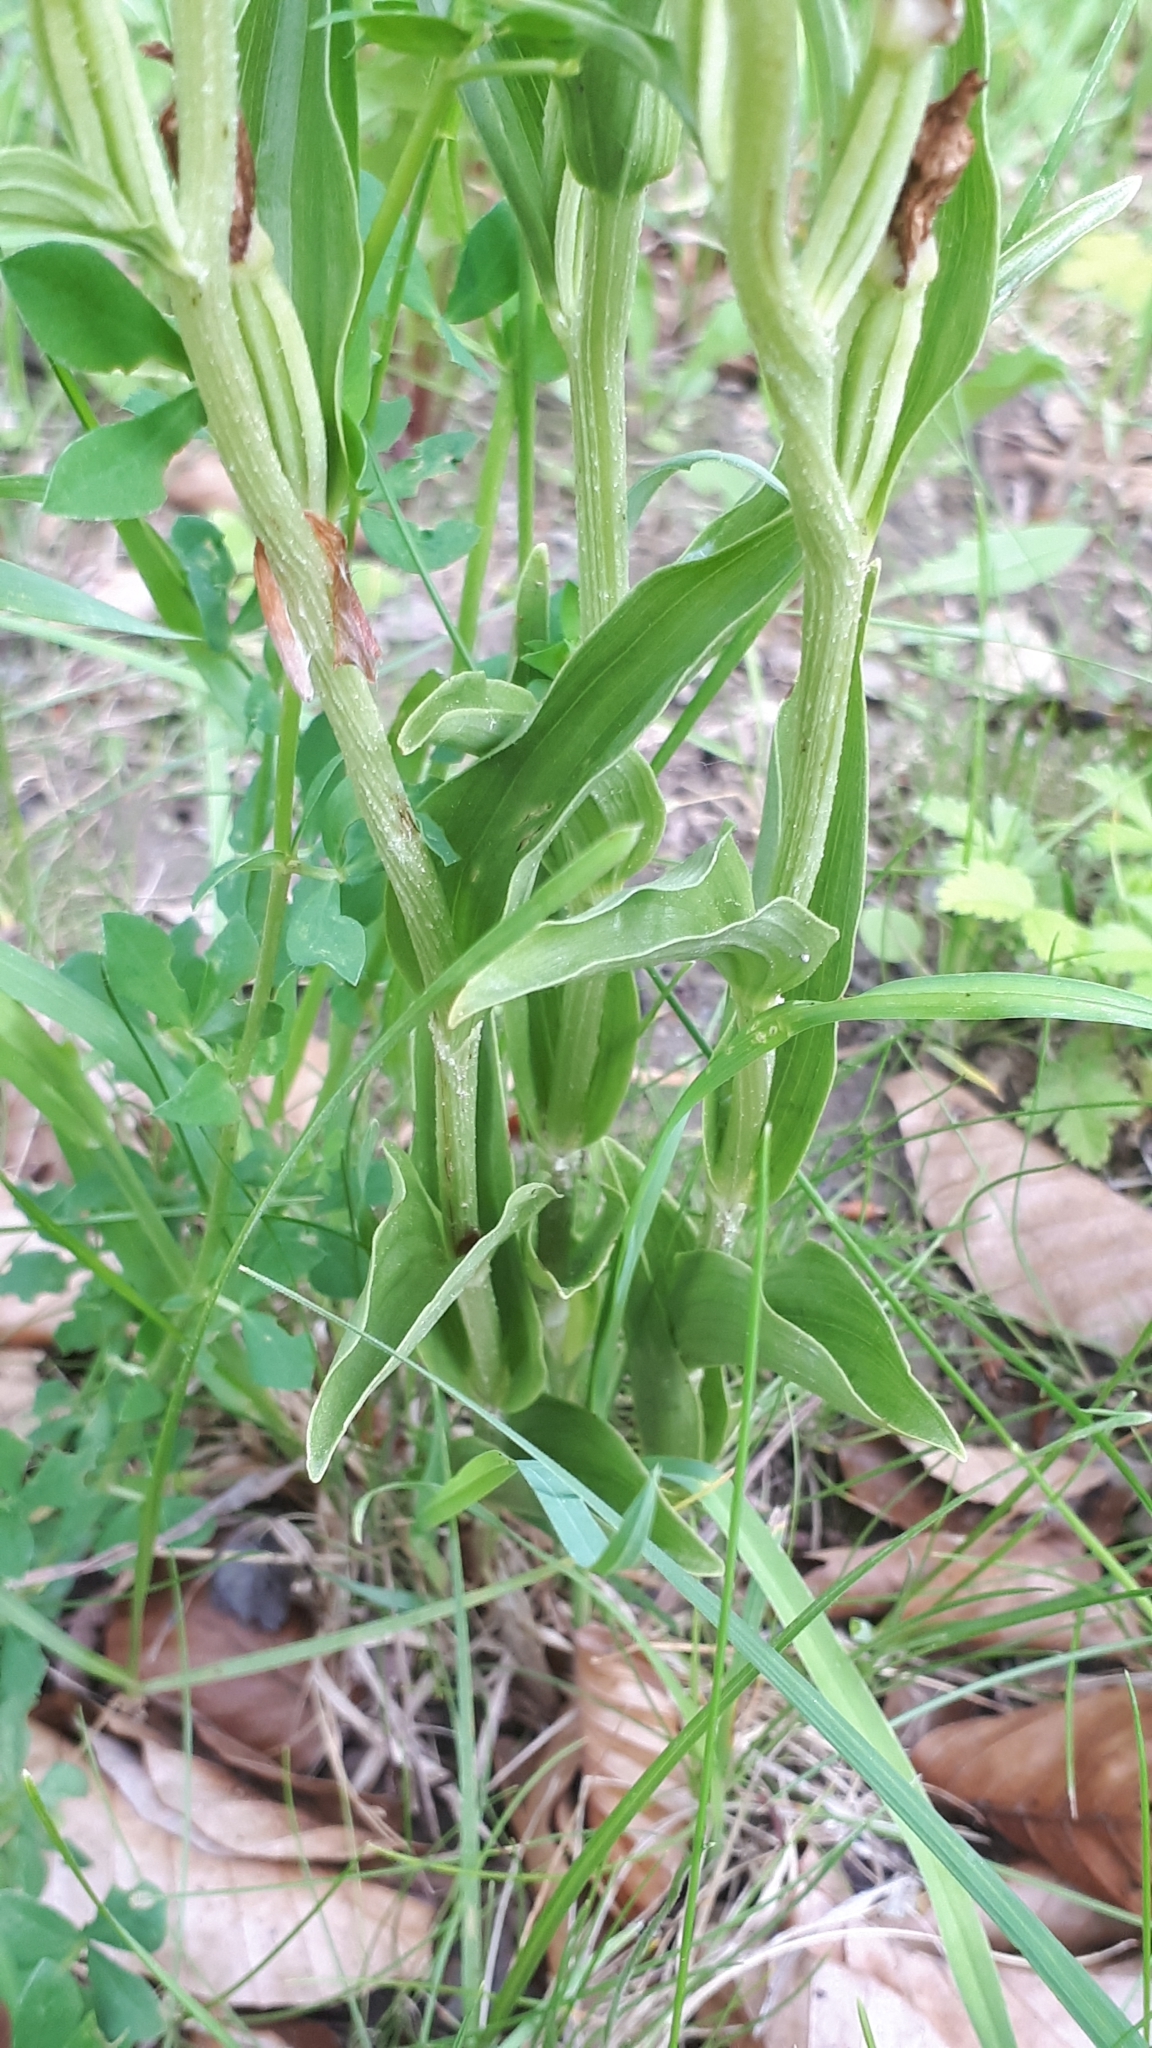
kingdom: Plantae
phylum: Tracheophyta
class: Liliopsida
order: Asparagales
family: Orchidaceae
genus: Cephalanthera
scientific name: Cephalanthera damasonium
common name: White helleborine
